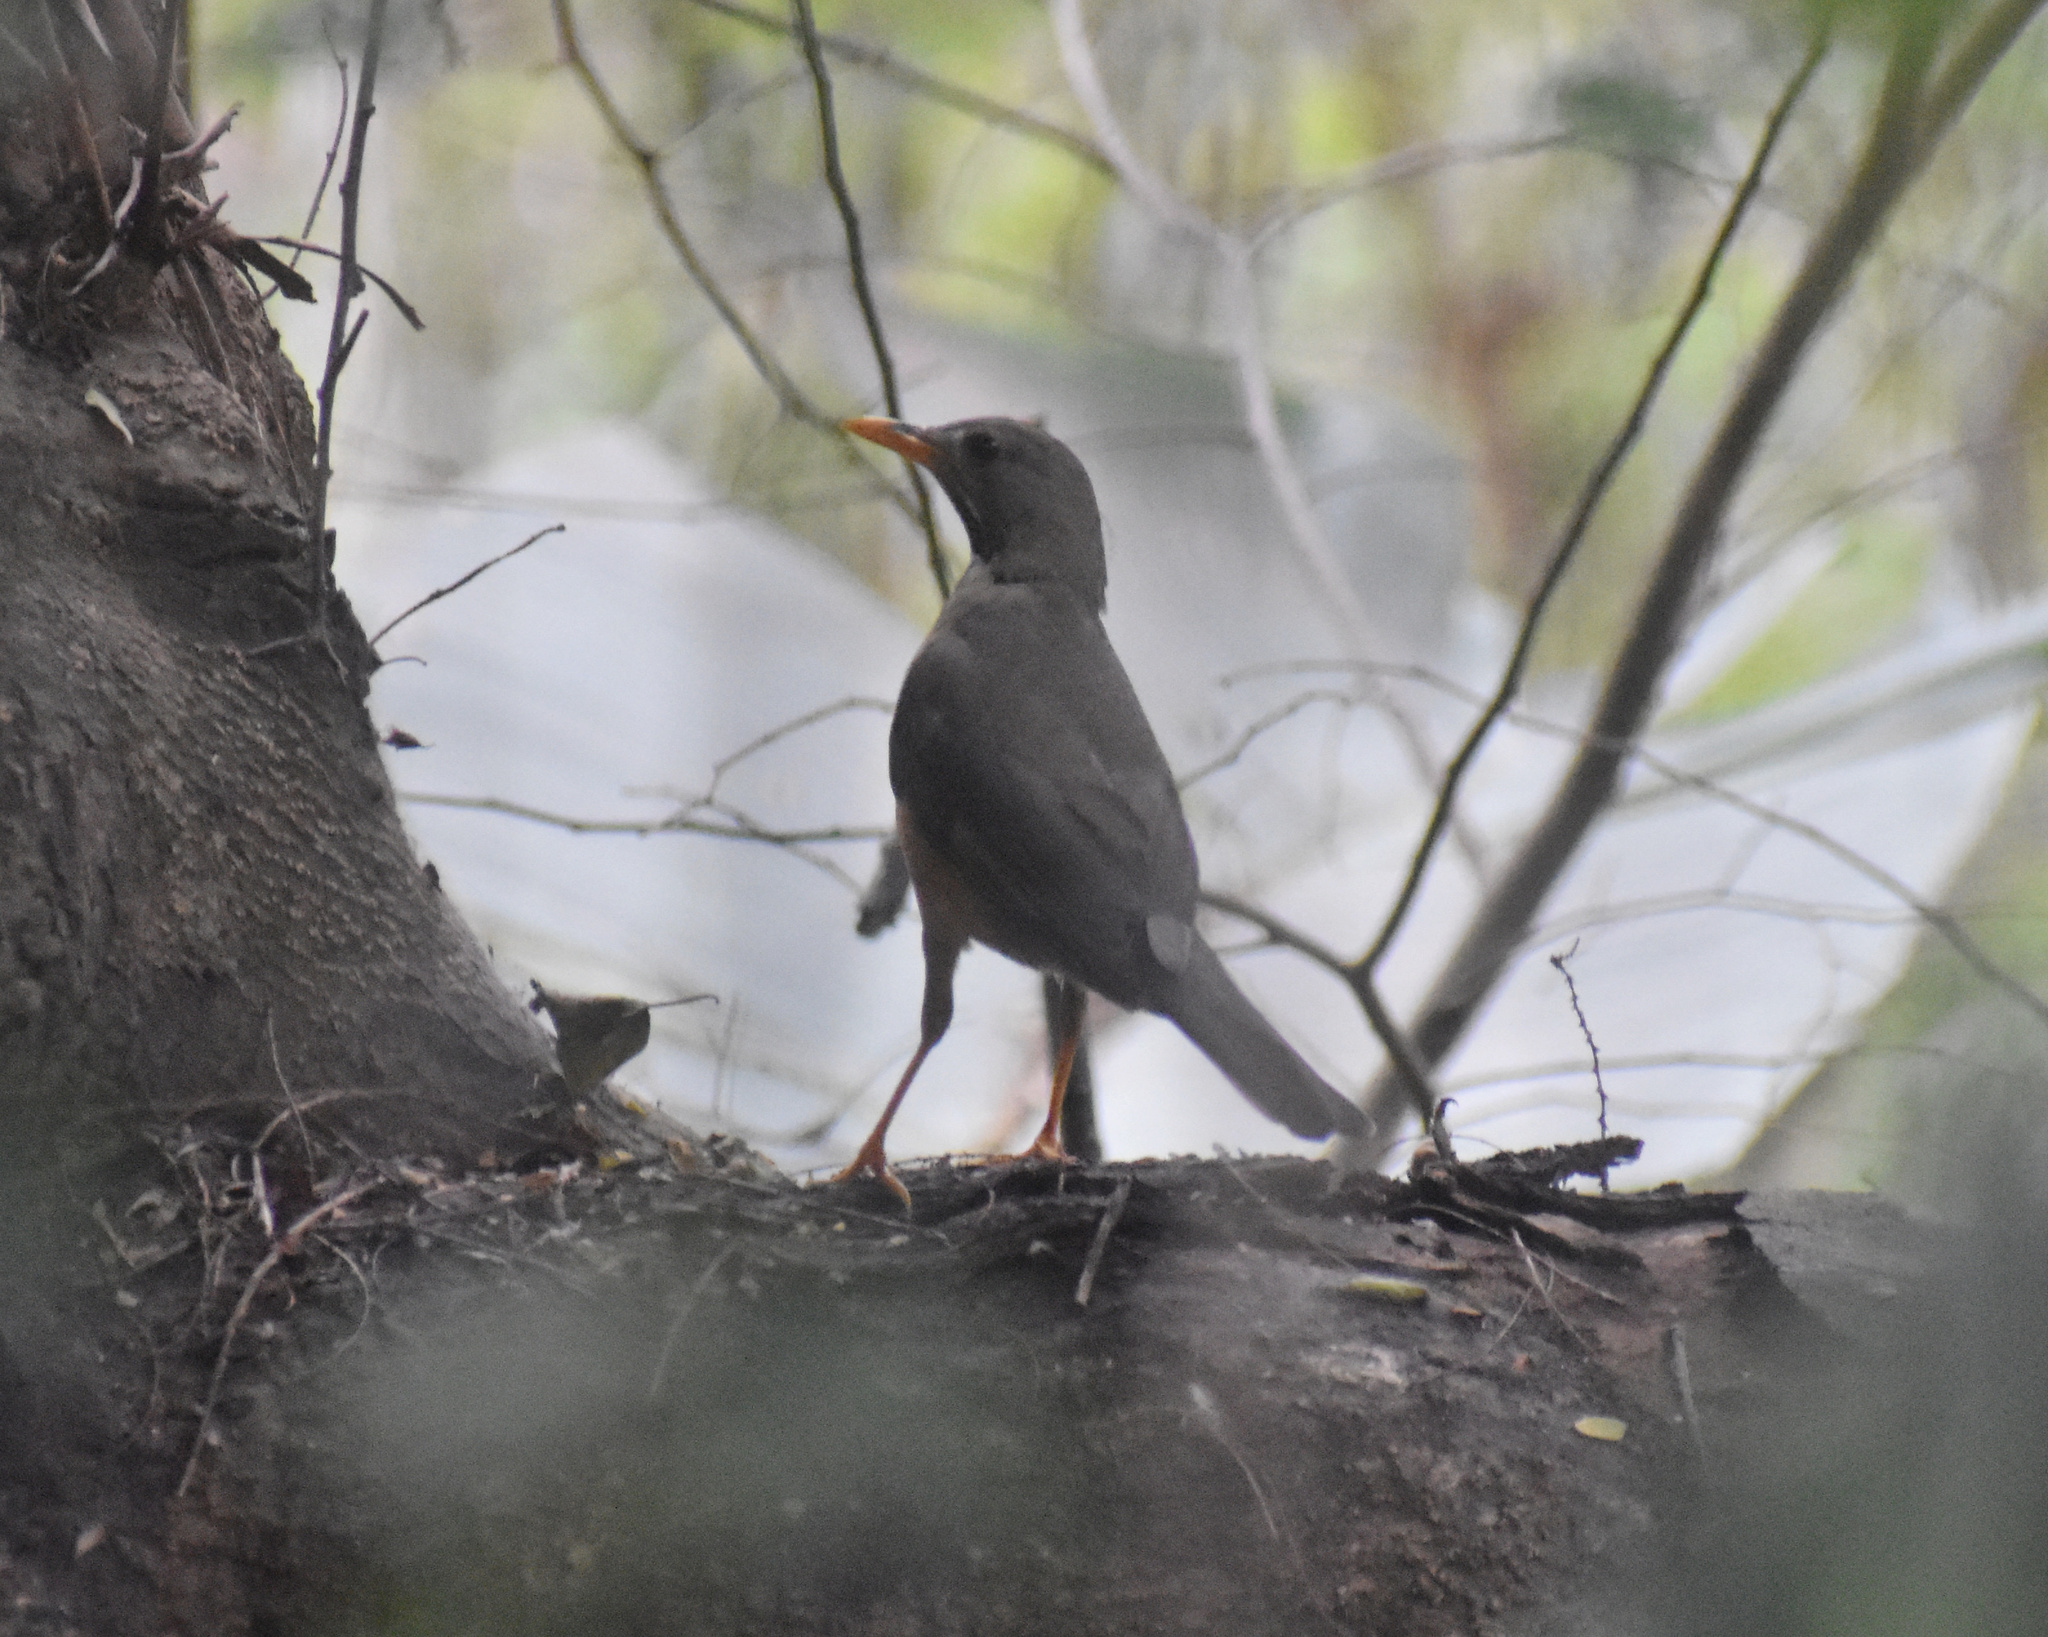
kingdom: Animalia
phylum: Chordata
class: Aves
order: Passeriformes
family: Turdidae
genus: Turdus
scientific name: Turdus olivaceus
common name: Olive thrush
